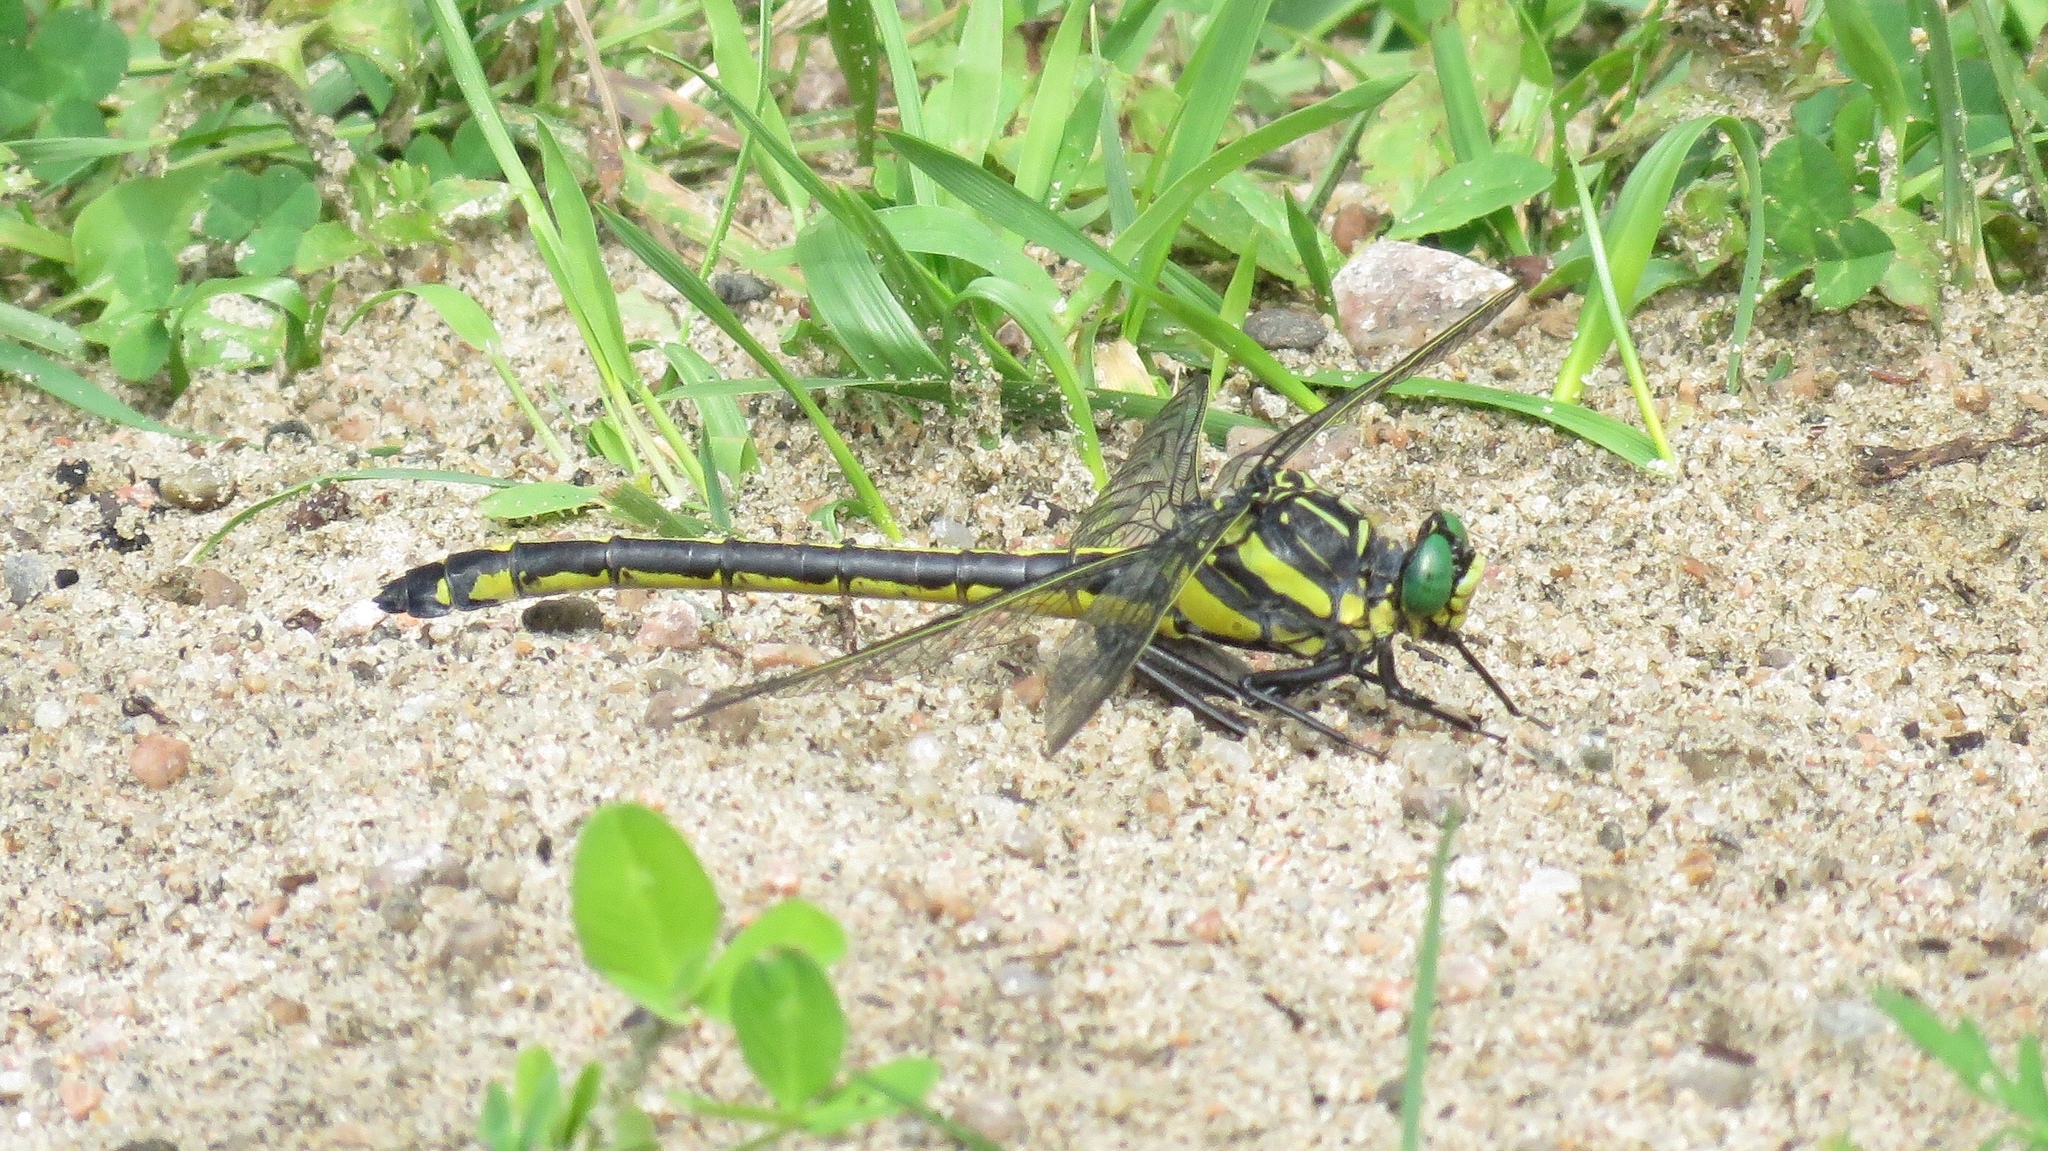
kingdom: Animalia
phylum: Arthropoda
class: Insecta
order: Odonata
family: Gomphidae
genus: Hagenius
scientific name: Hagenius brevistylus
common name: Dragonhunter
